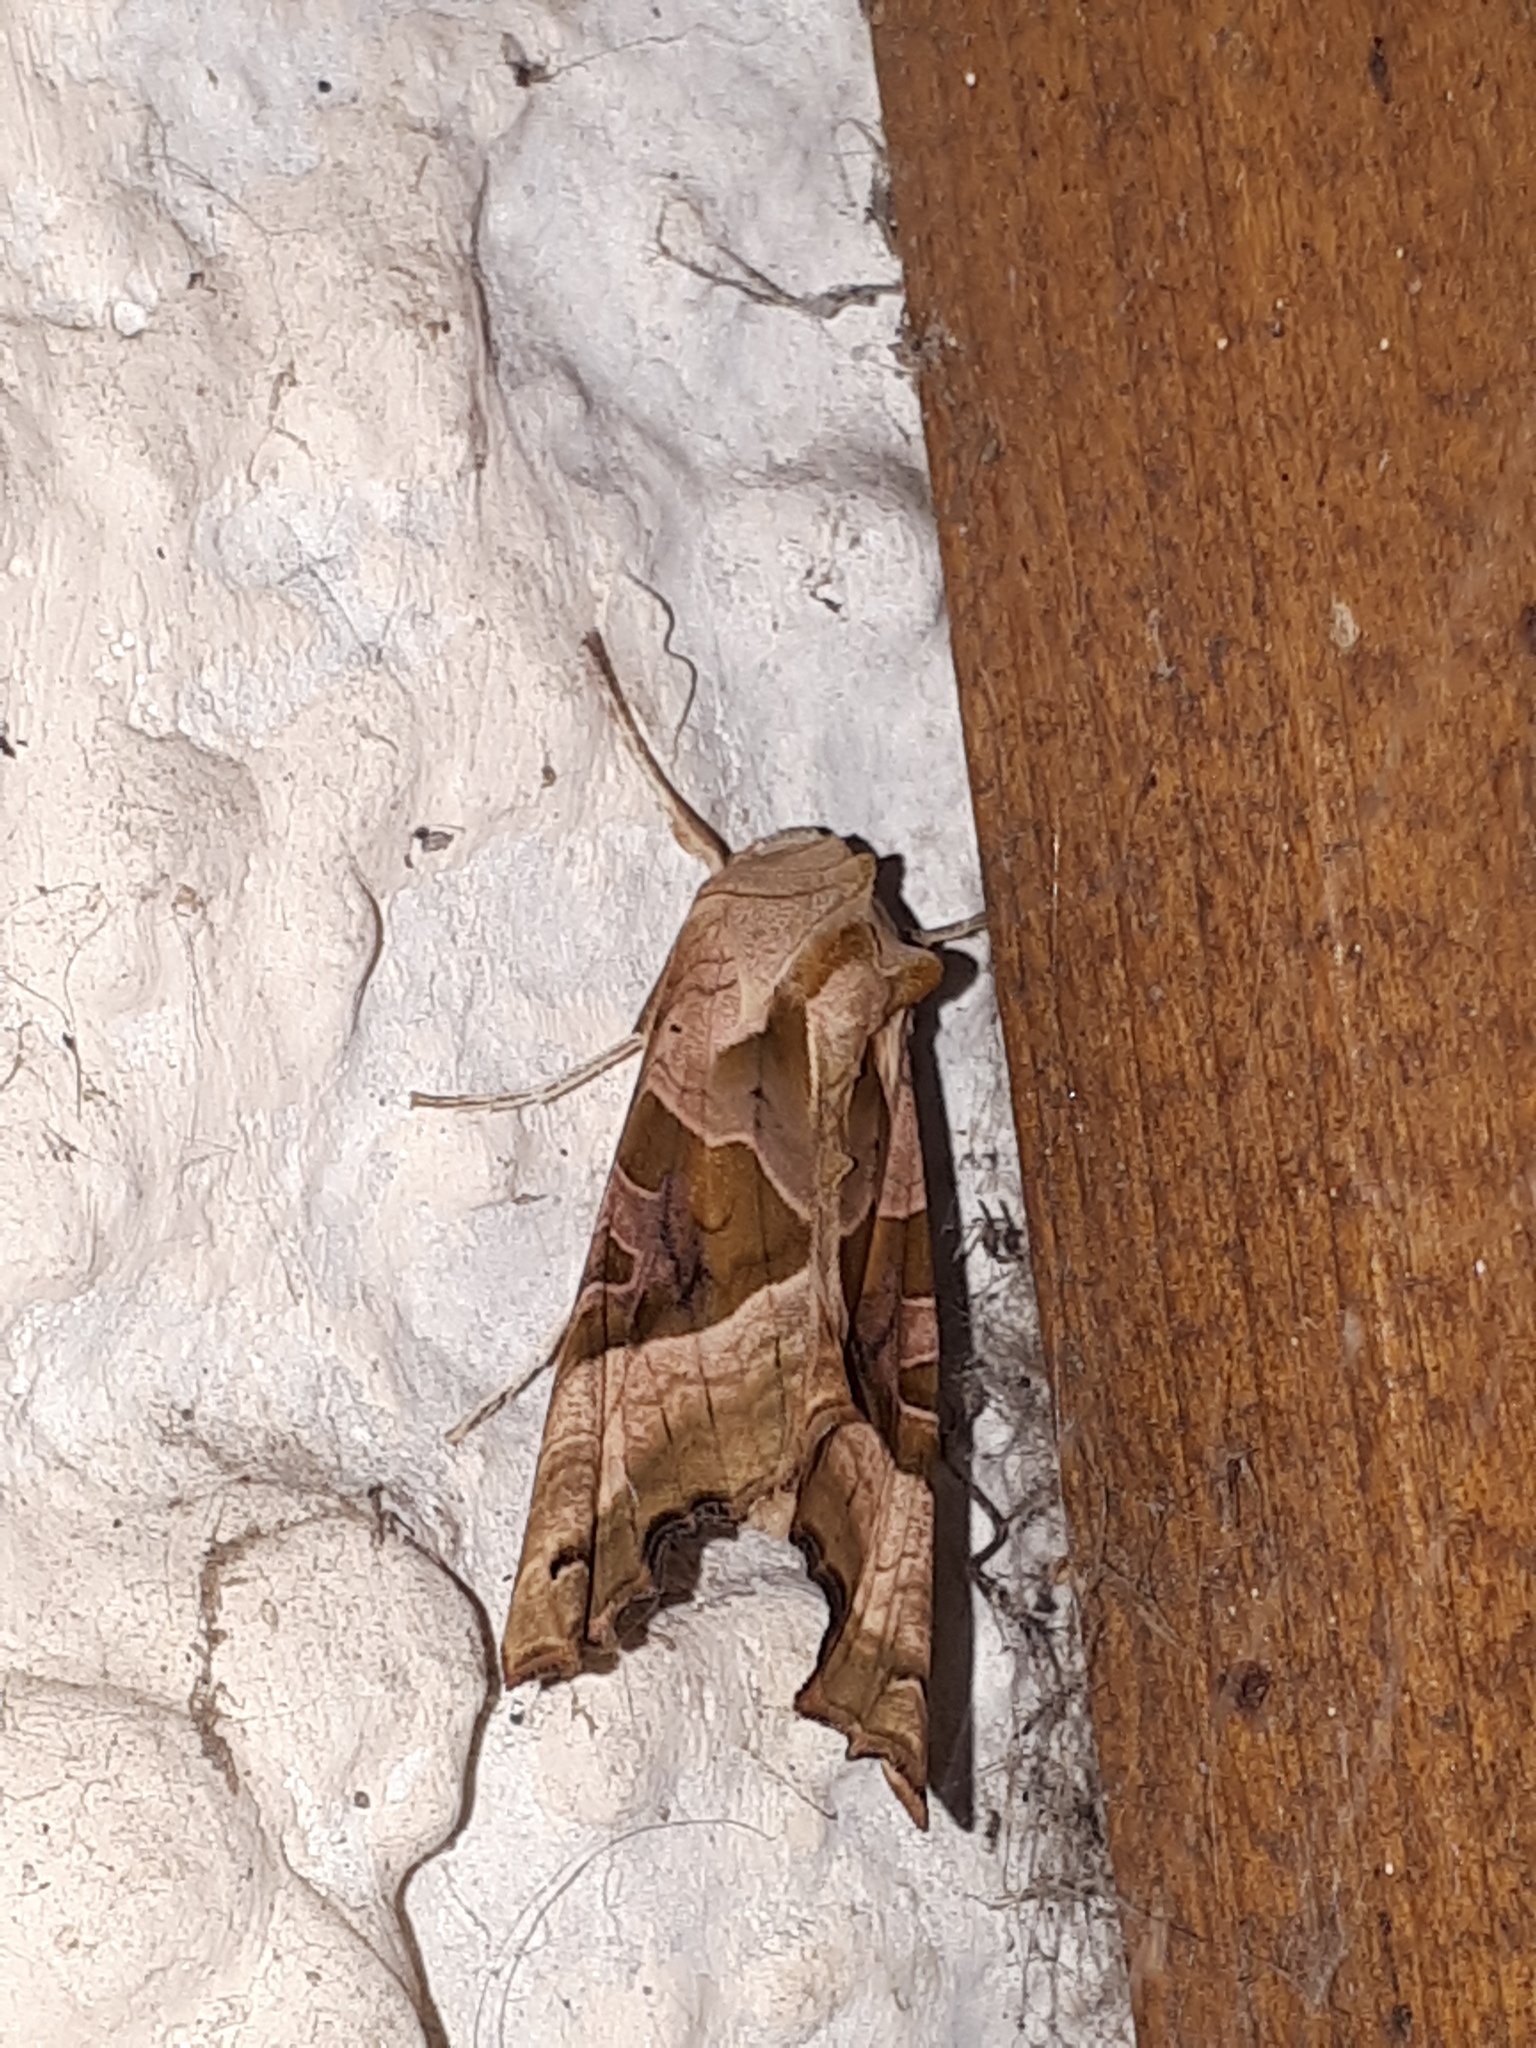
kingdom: Animalia
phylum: Arthropoda
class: Insecta
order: Lepidoptera
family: Noctuidae
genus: Phlogophora
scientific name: Phlogophora meticulosa
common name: Angle shades
